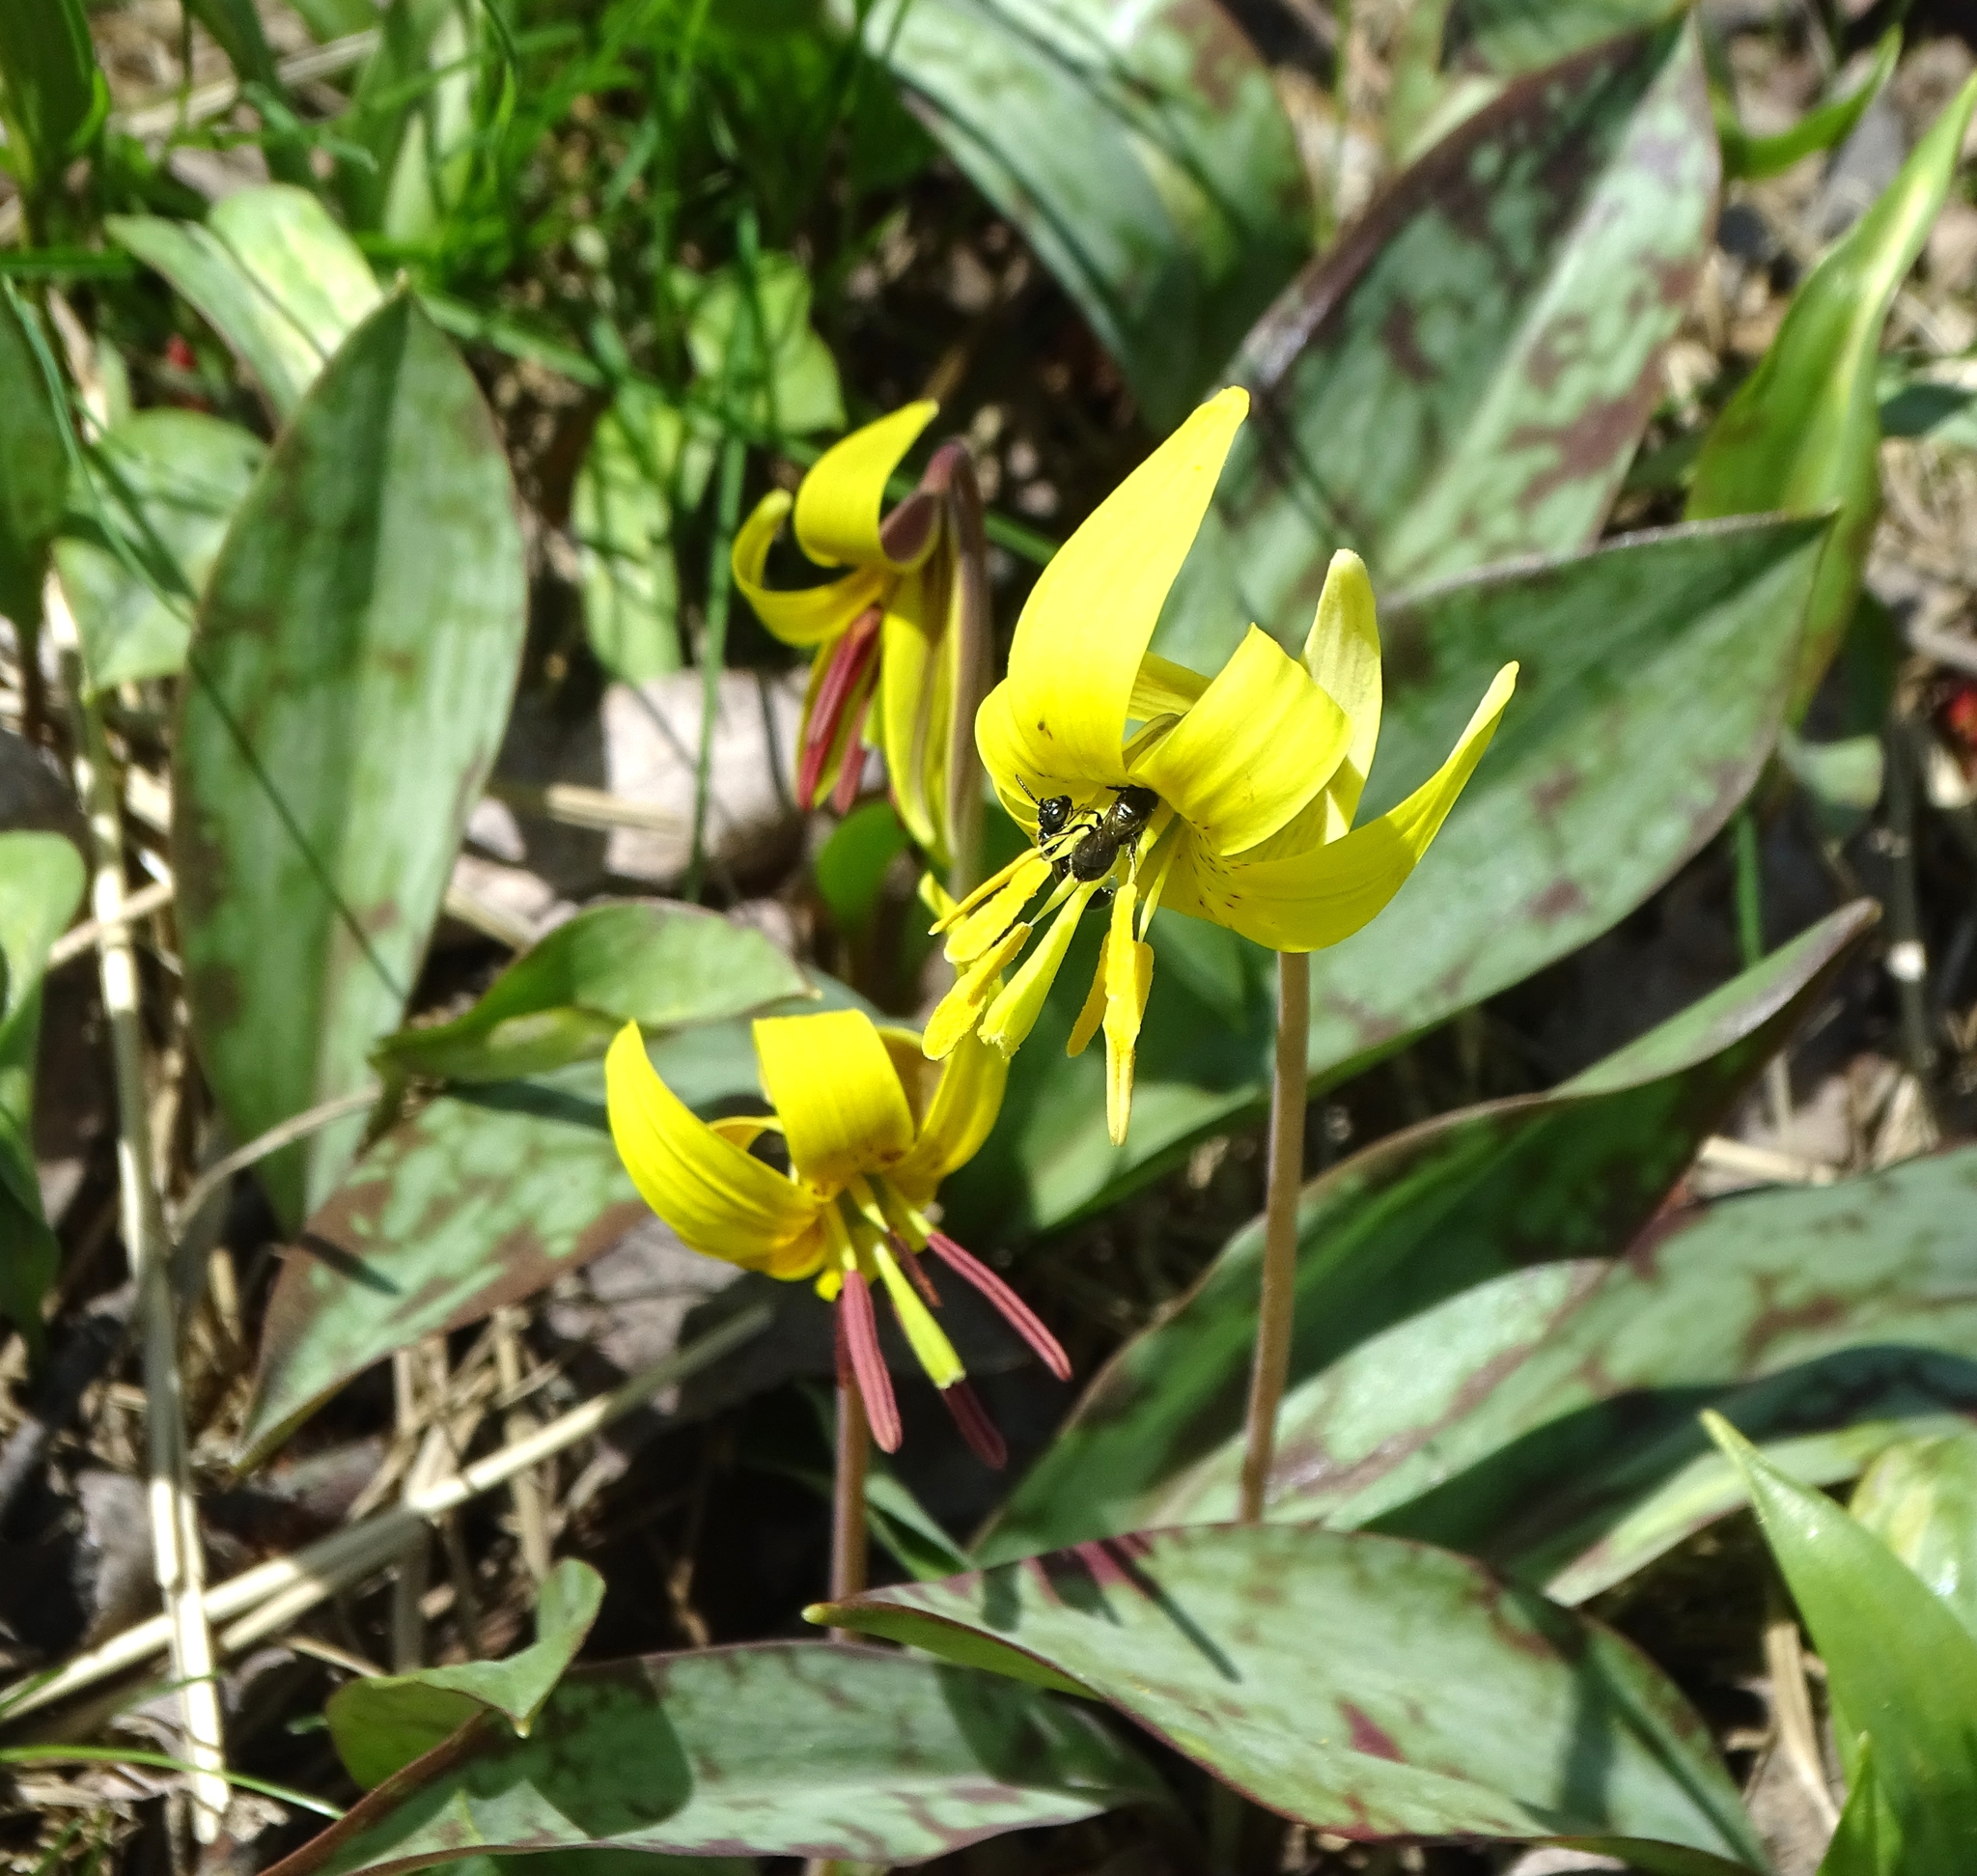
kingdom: Plantae
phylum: Tracheophyta
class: Liliopsida
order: Liliales
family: Liliaceae
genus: Erythronium
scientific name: Erythronium americanum
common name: Yellow adder's-tongue
